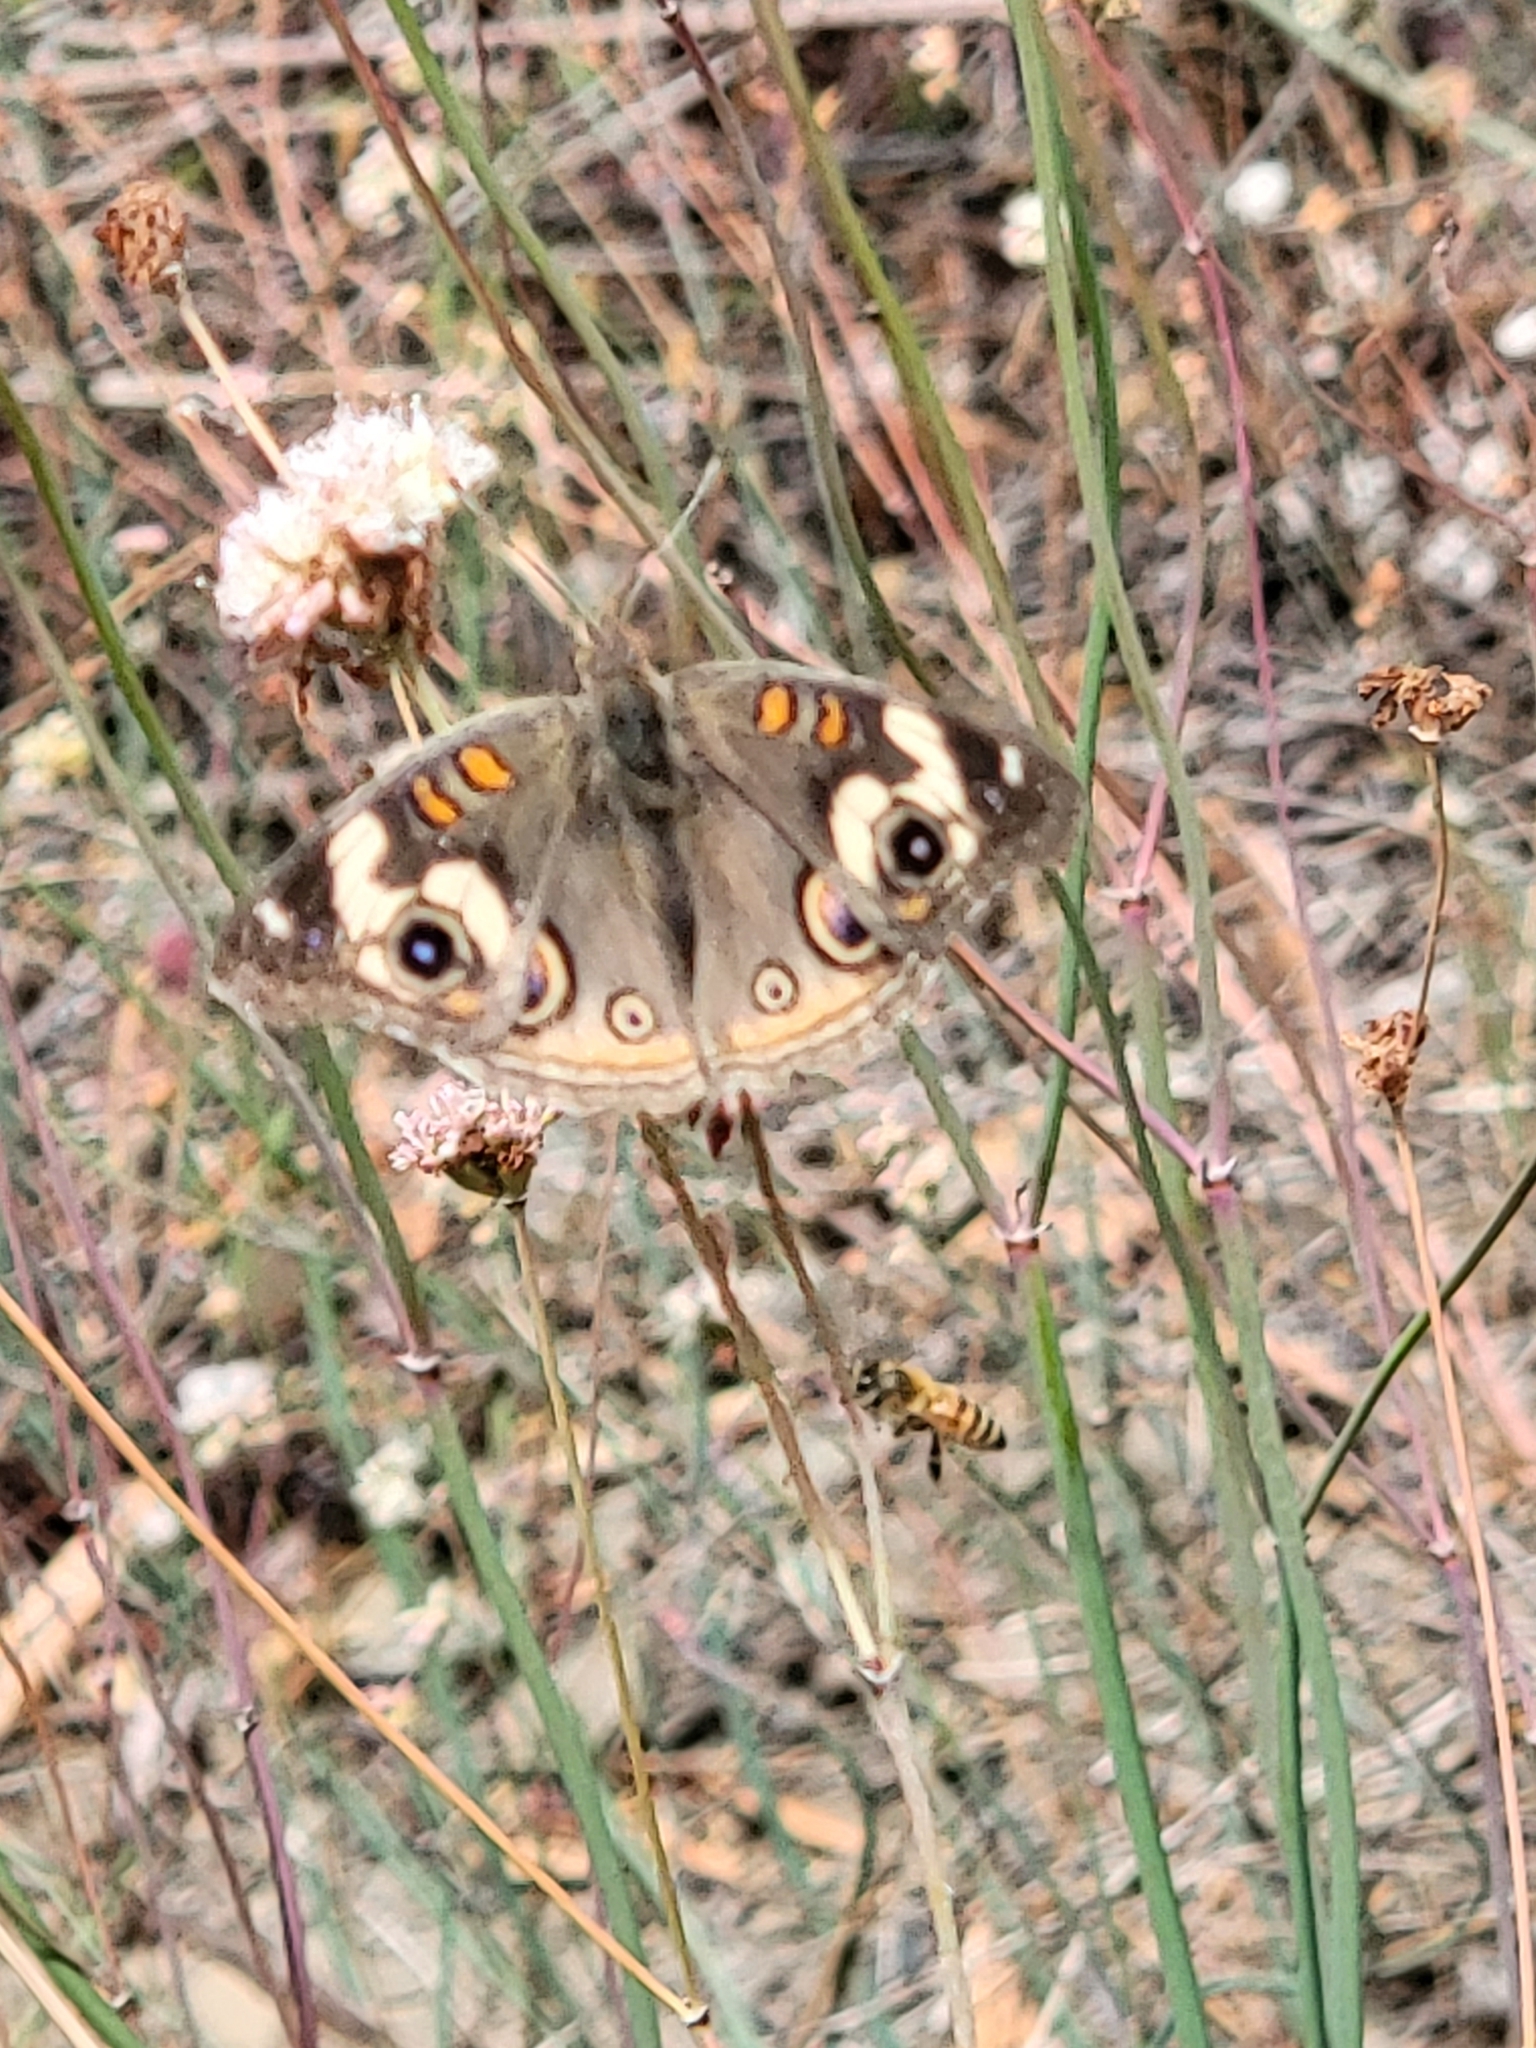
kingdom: Animalia
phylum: Arthropoda
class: Insecta
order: Lepidoptera
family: Nymphalidae
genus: Junonia
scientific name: Junonia grisea
